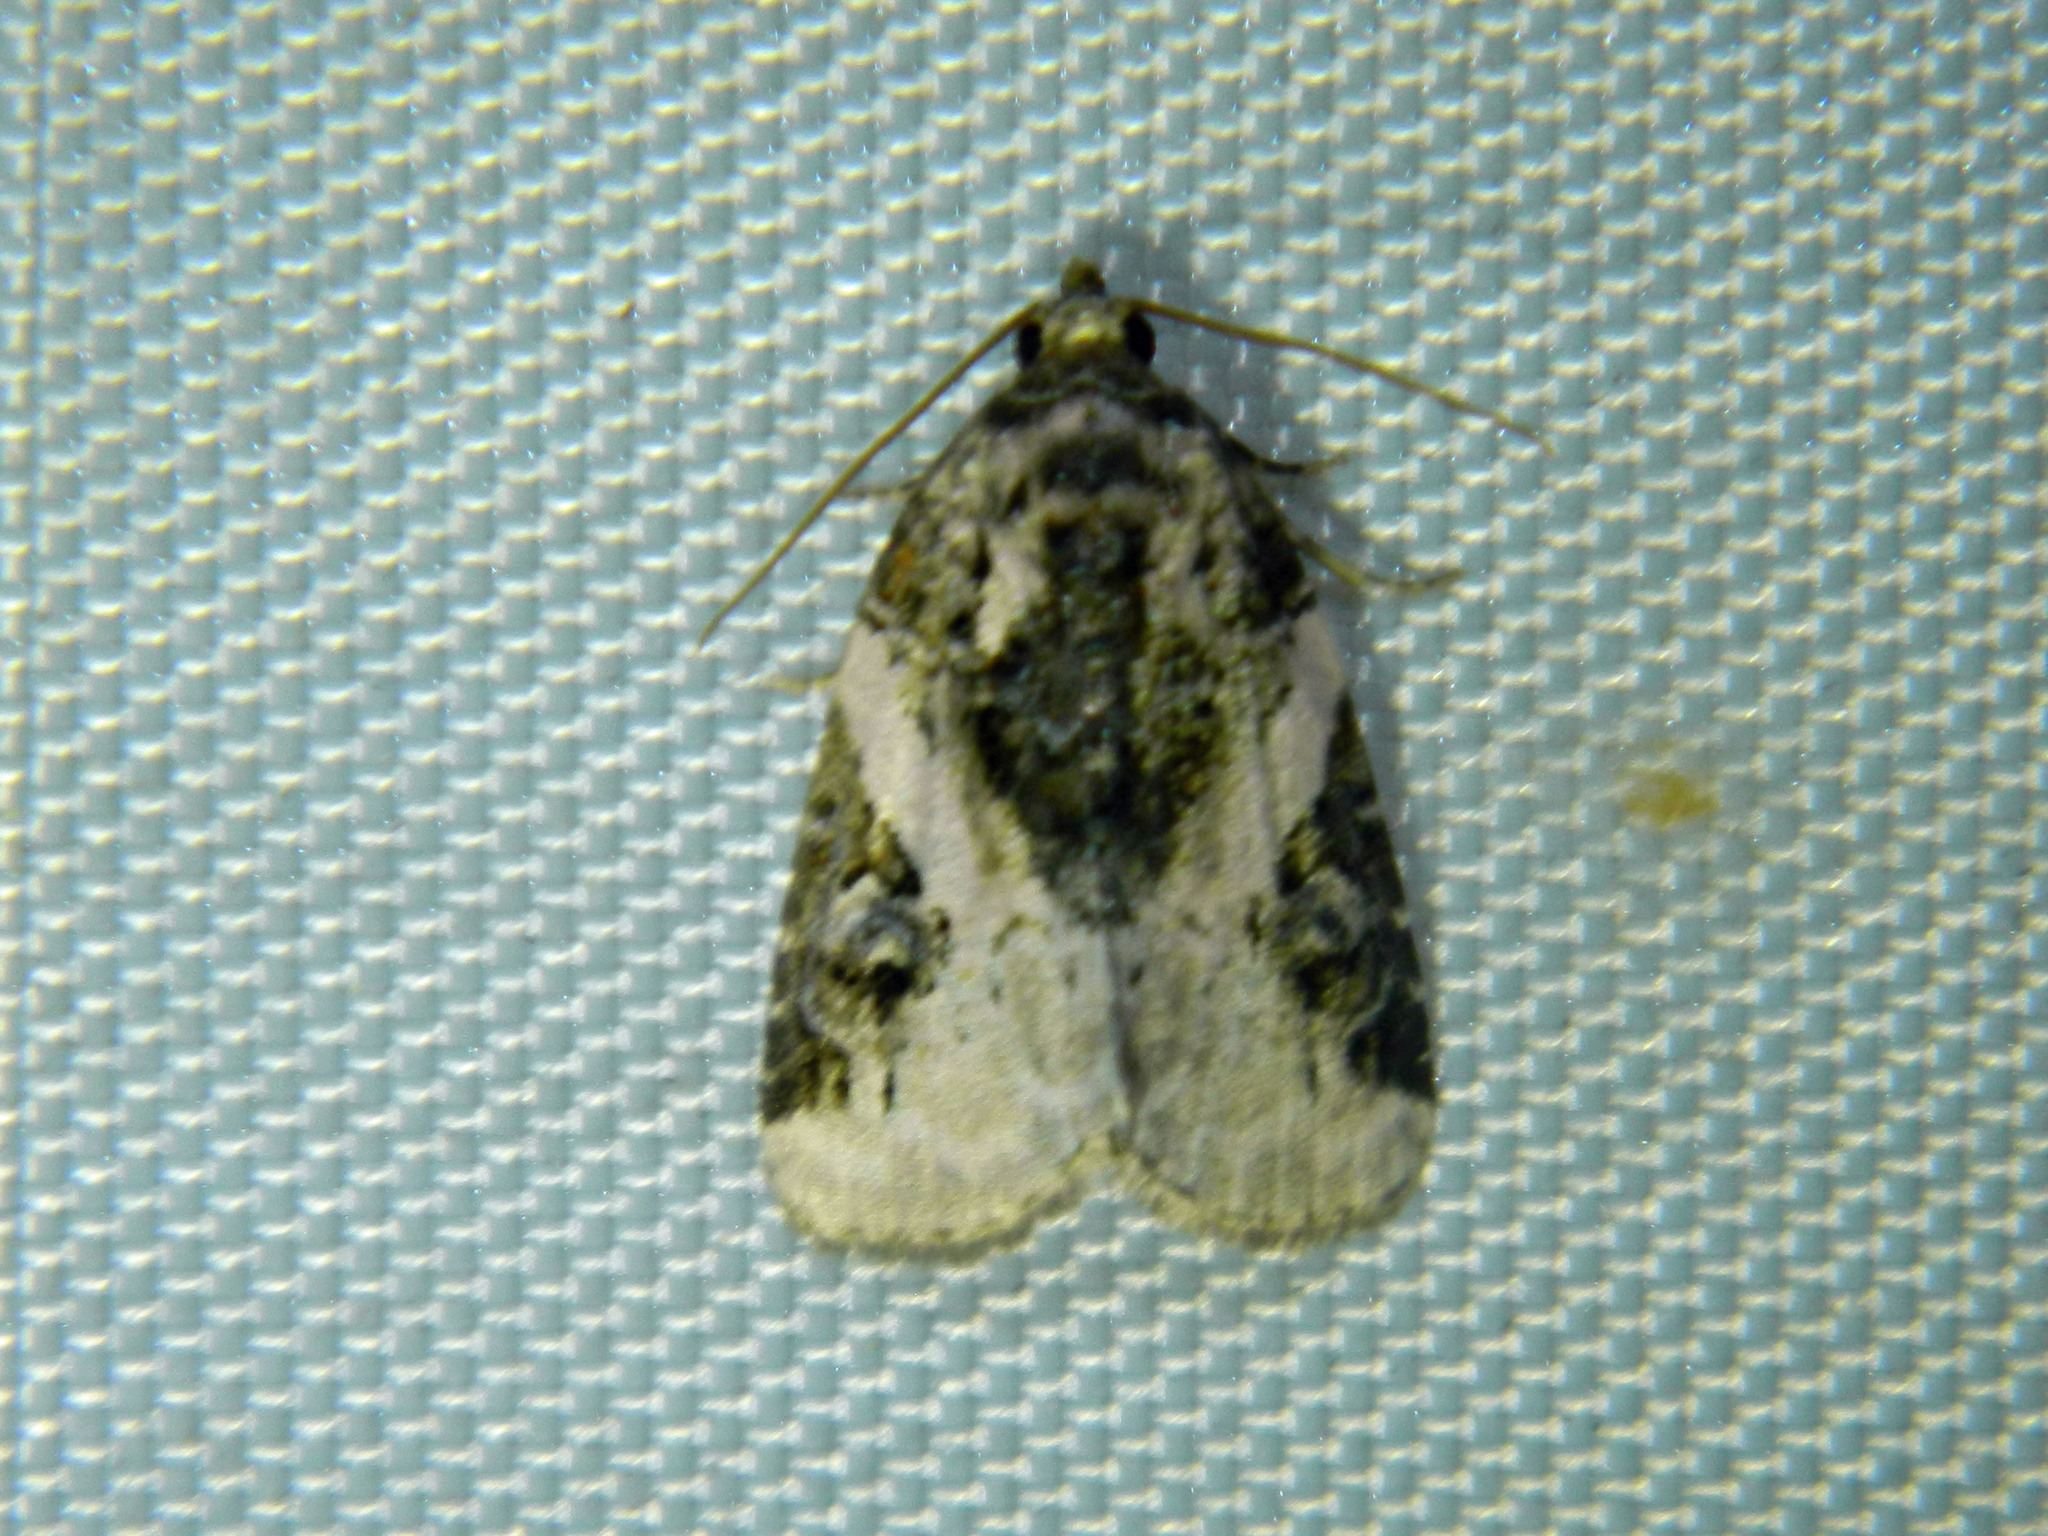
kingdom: Animalia
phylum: Arthropoda
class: Insecta
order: Lepidoptera
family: Noctuidae
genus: Pseudeustrotia
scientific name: Pseudeustrotia carneola
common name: Pink-barred lithacodia moth
